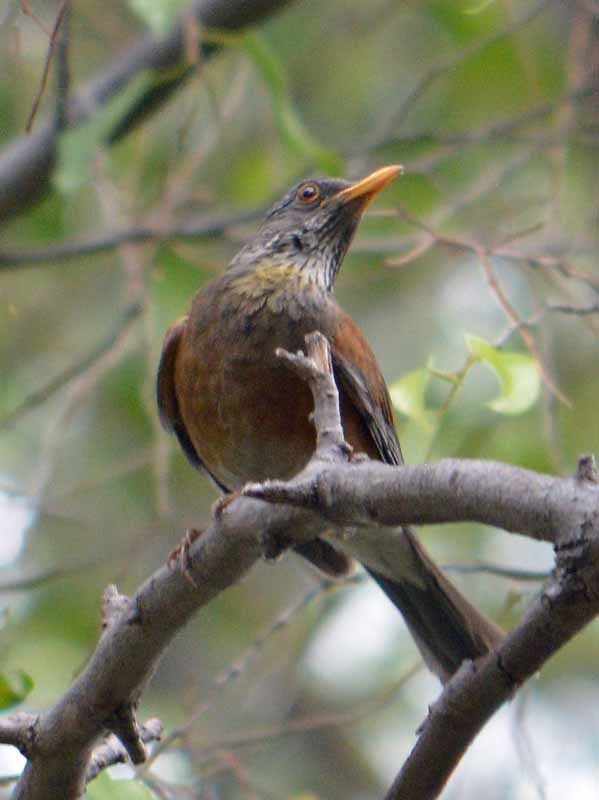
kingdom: Animalia
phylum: Chordata
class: Aves
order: Passeriformes
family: Turdidae
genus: Turdus
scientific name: Turdus rufopalliatus
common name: Rufous-backed robin
